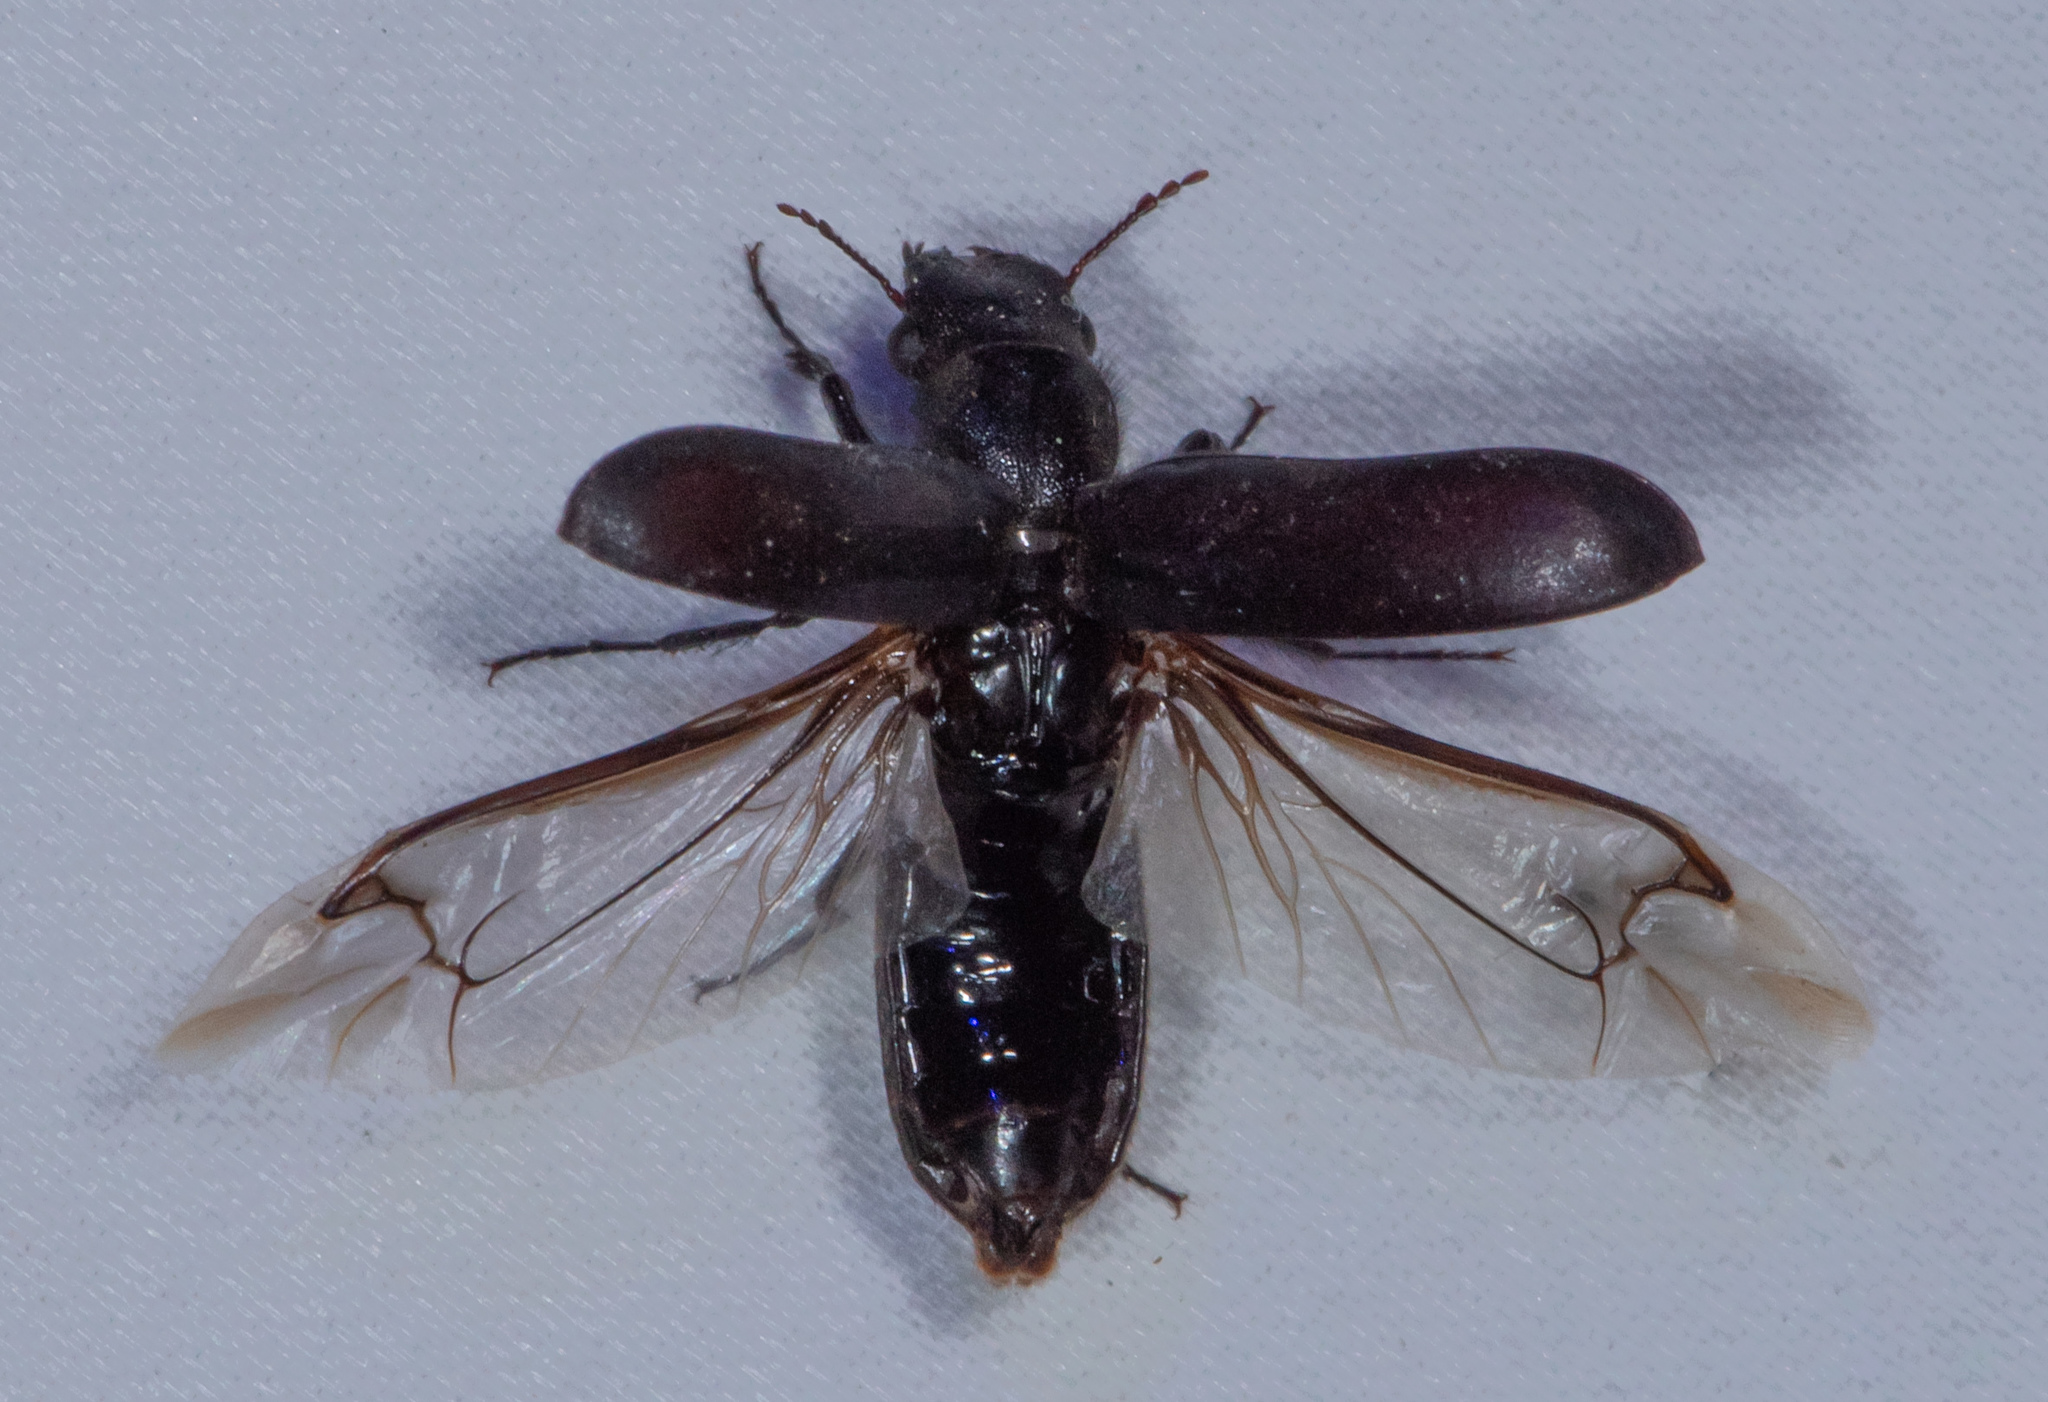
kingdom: Animalia
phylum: Arthropoda
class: Insecta
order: Coleoptera
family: Bostrichidae
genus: Polycaon
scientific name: Polycaon stoutii
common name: Powderpost beetle
